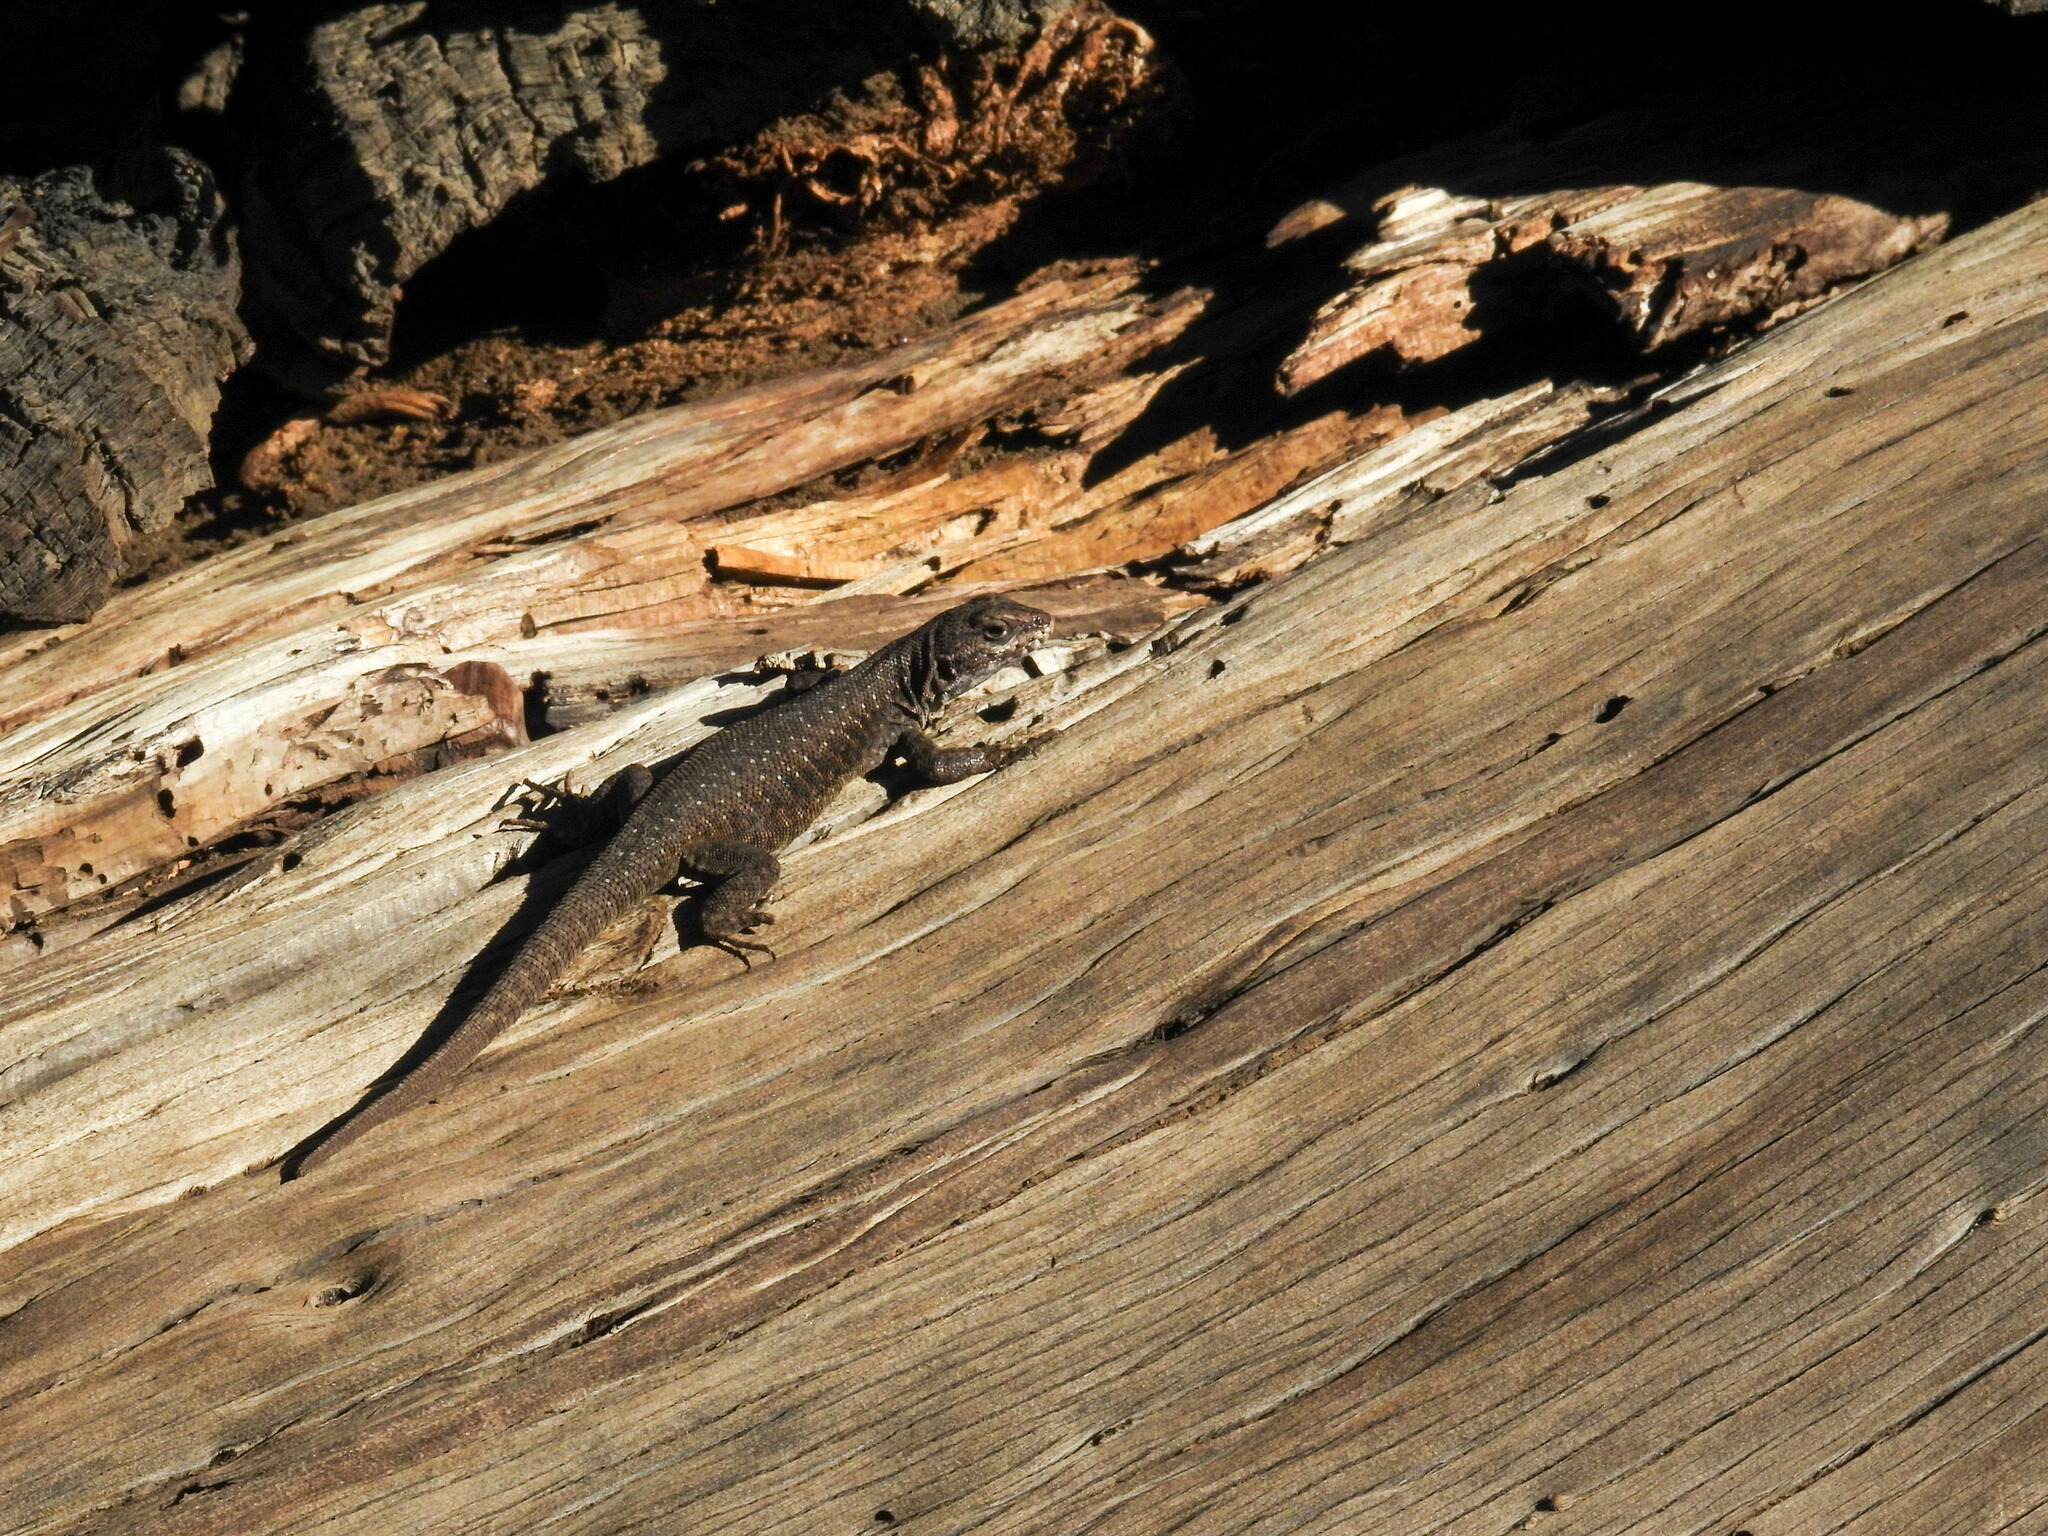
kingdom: Animalia
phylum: Chordata
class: Squamata
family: Liolaemidae
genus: Liolaemus
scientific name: Liolaemus elongatus
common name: Elongate tree iguana
